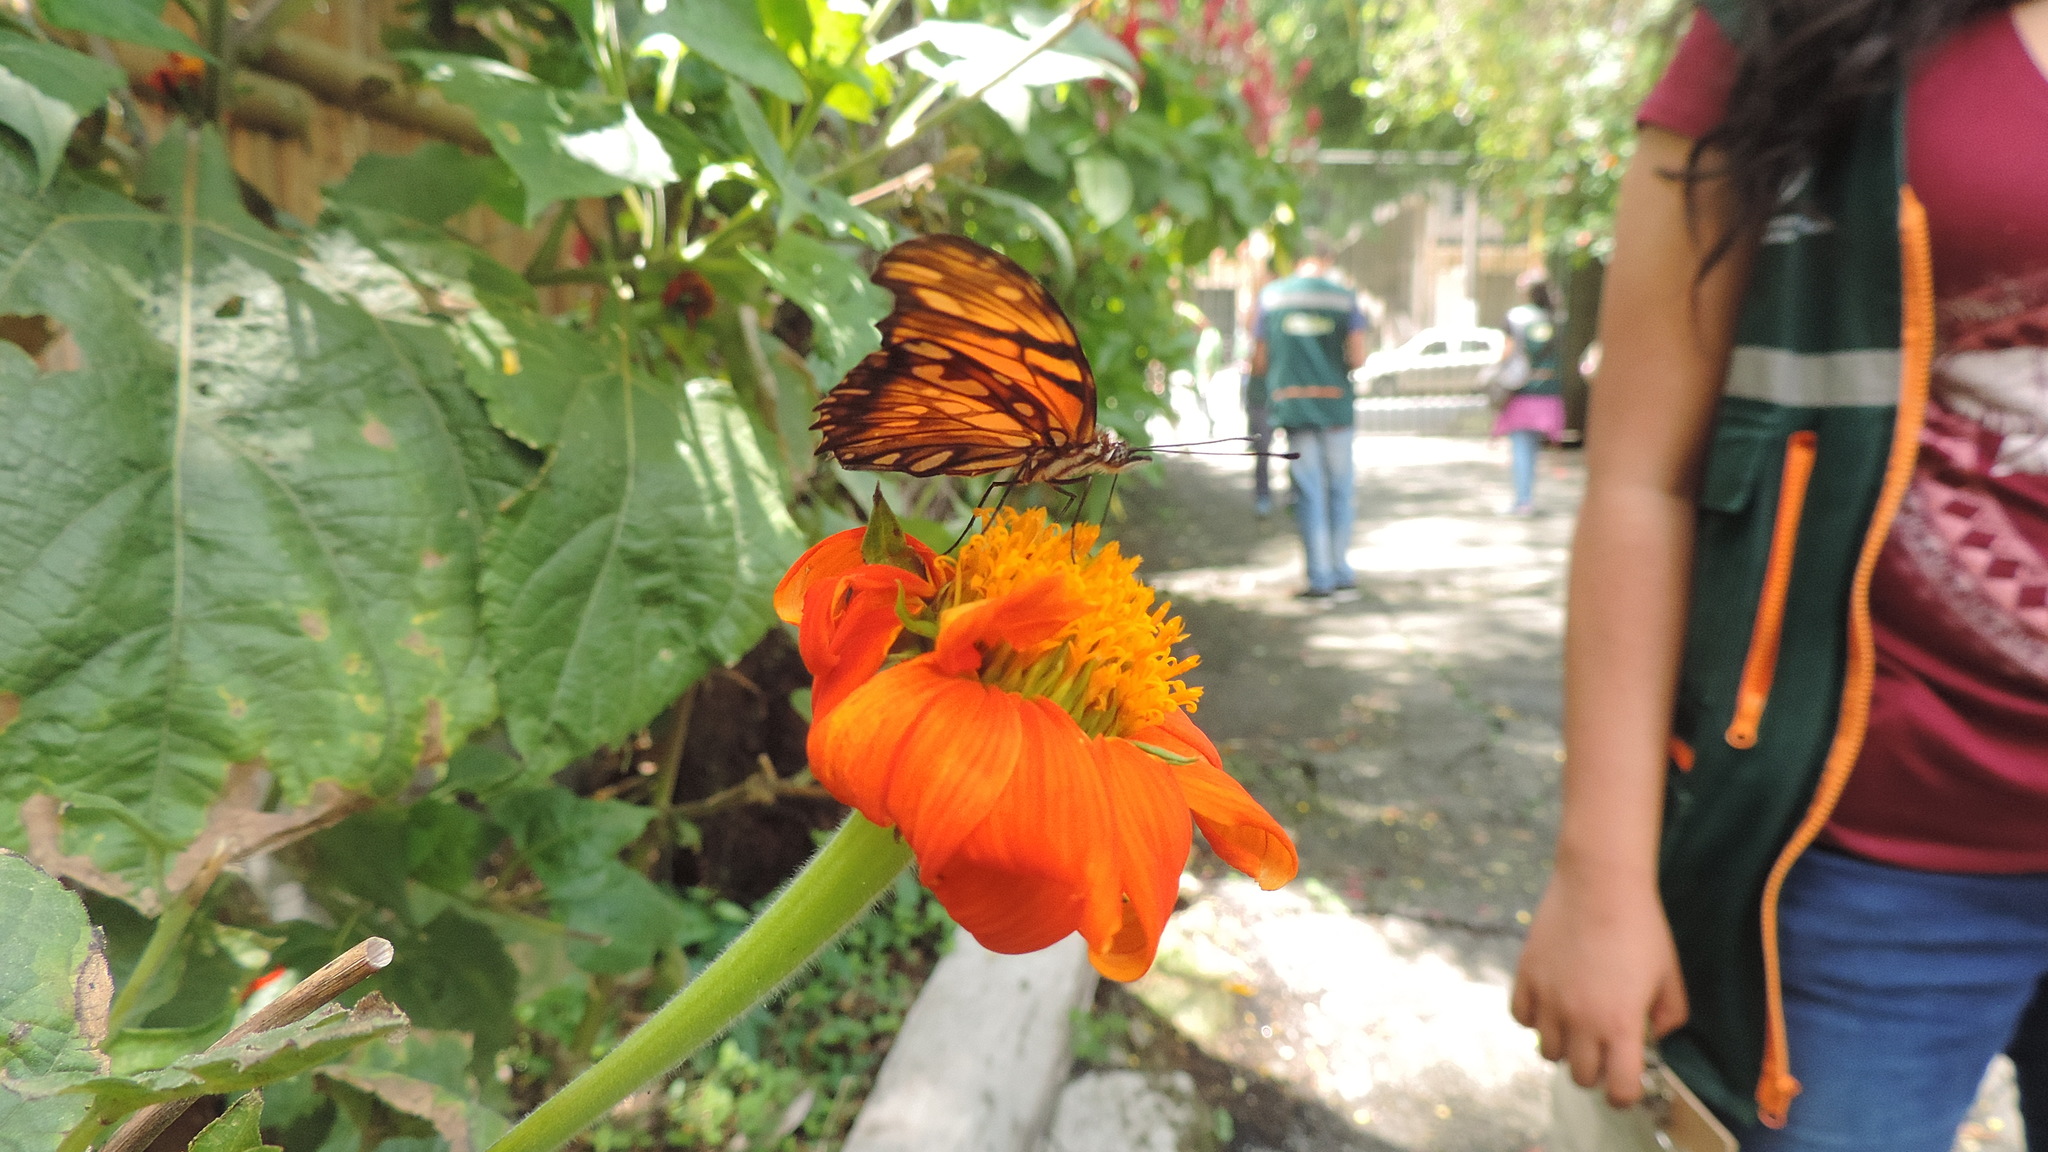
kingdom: Animalia
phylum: Arthropoda
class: Insecta
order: Lepidoptera
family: Nymphalidae
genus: Dione
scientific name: Dione juno
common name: Juno silverspot
